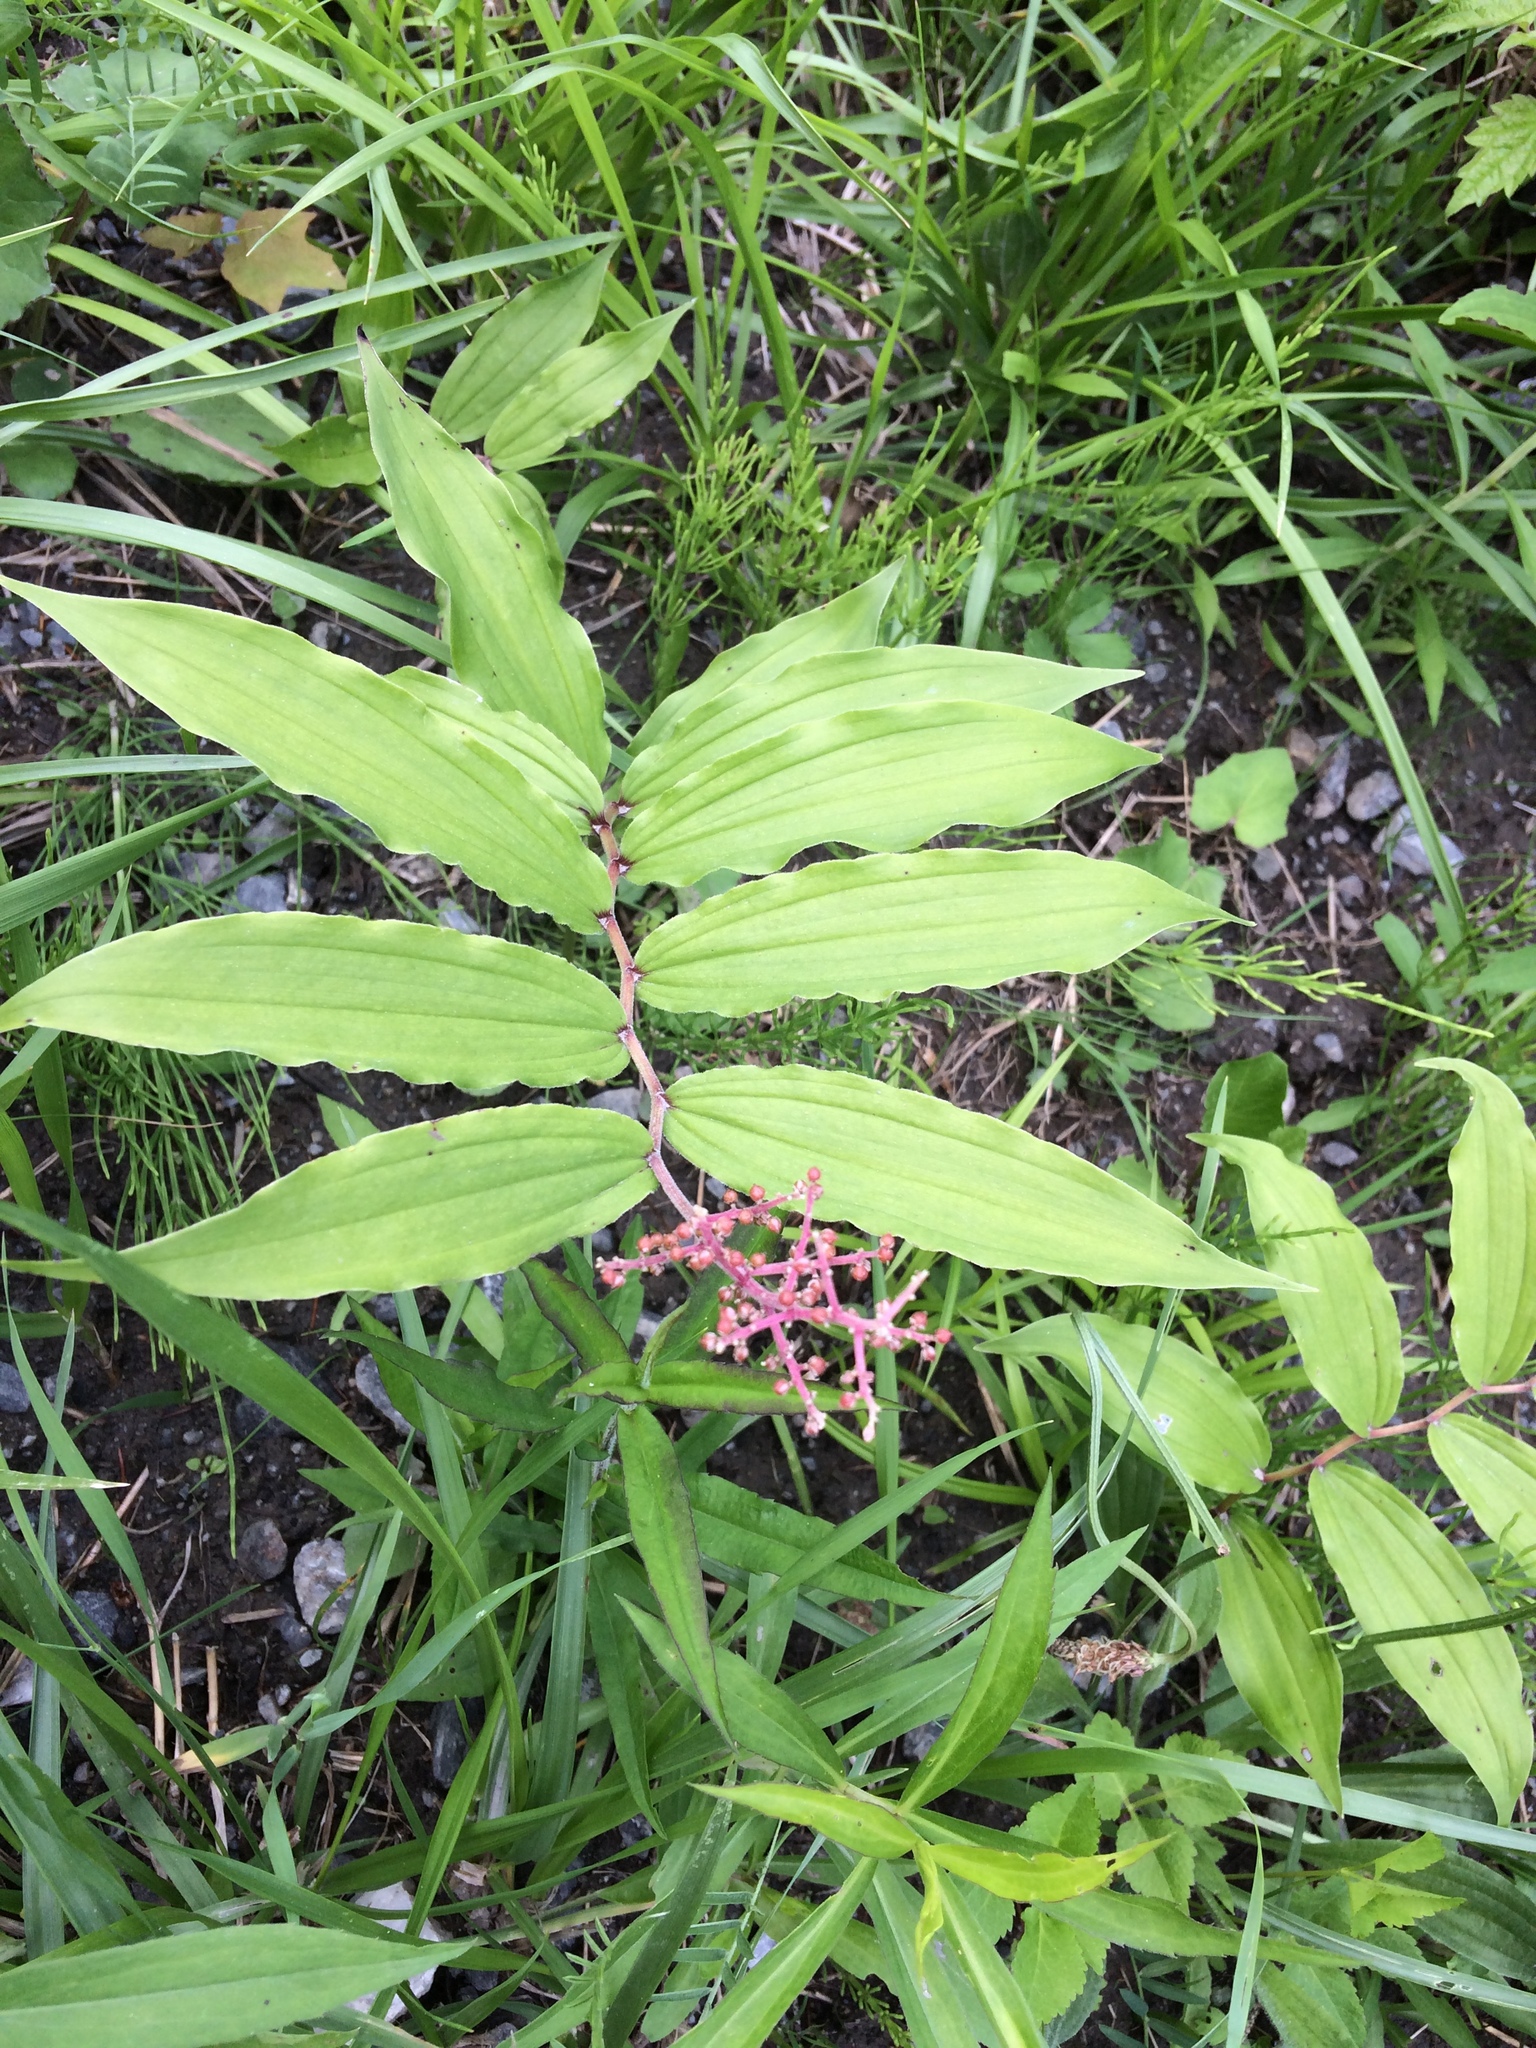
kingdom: Plantae
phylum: Tracheophyta
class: Liliopsida
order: Asparagales
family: Asparagaceae
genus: Maianthemum
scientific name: Maianthemum racemosum
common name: False spikenard
